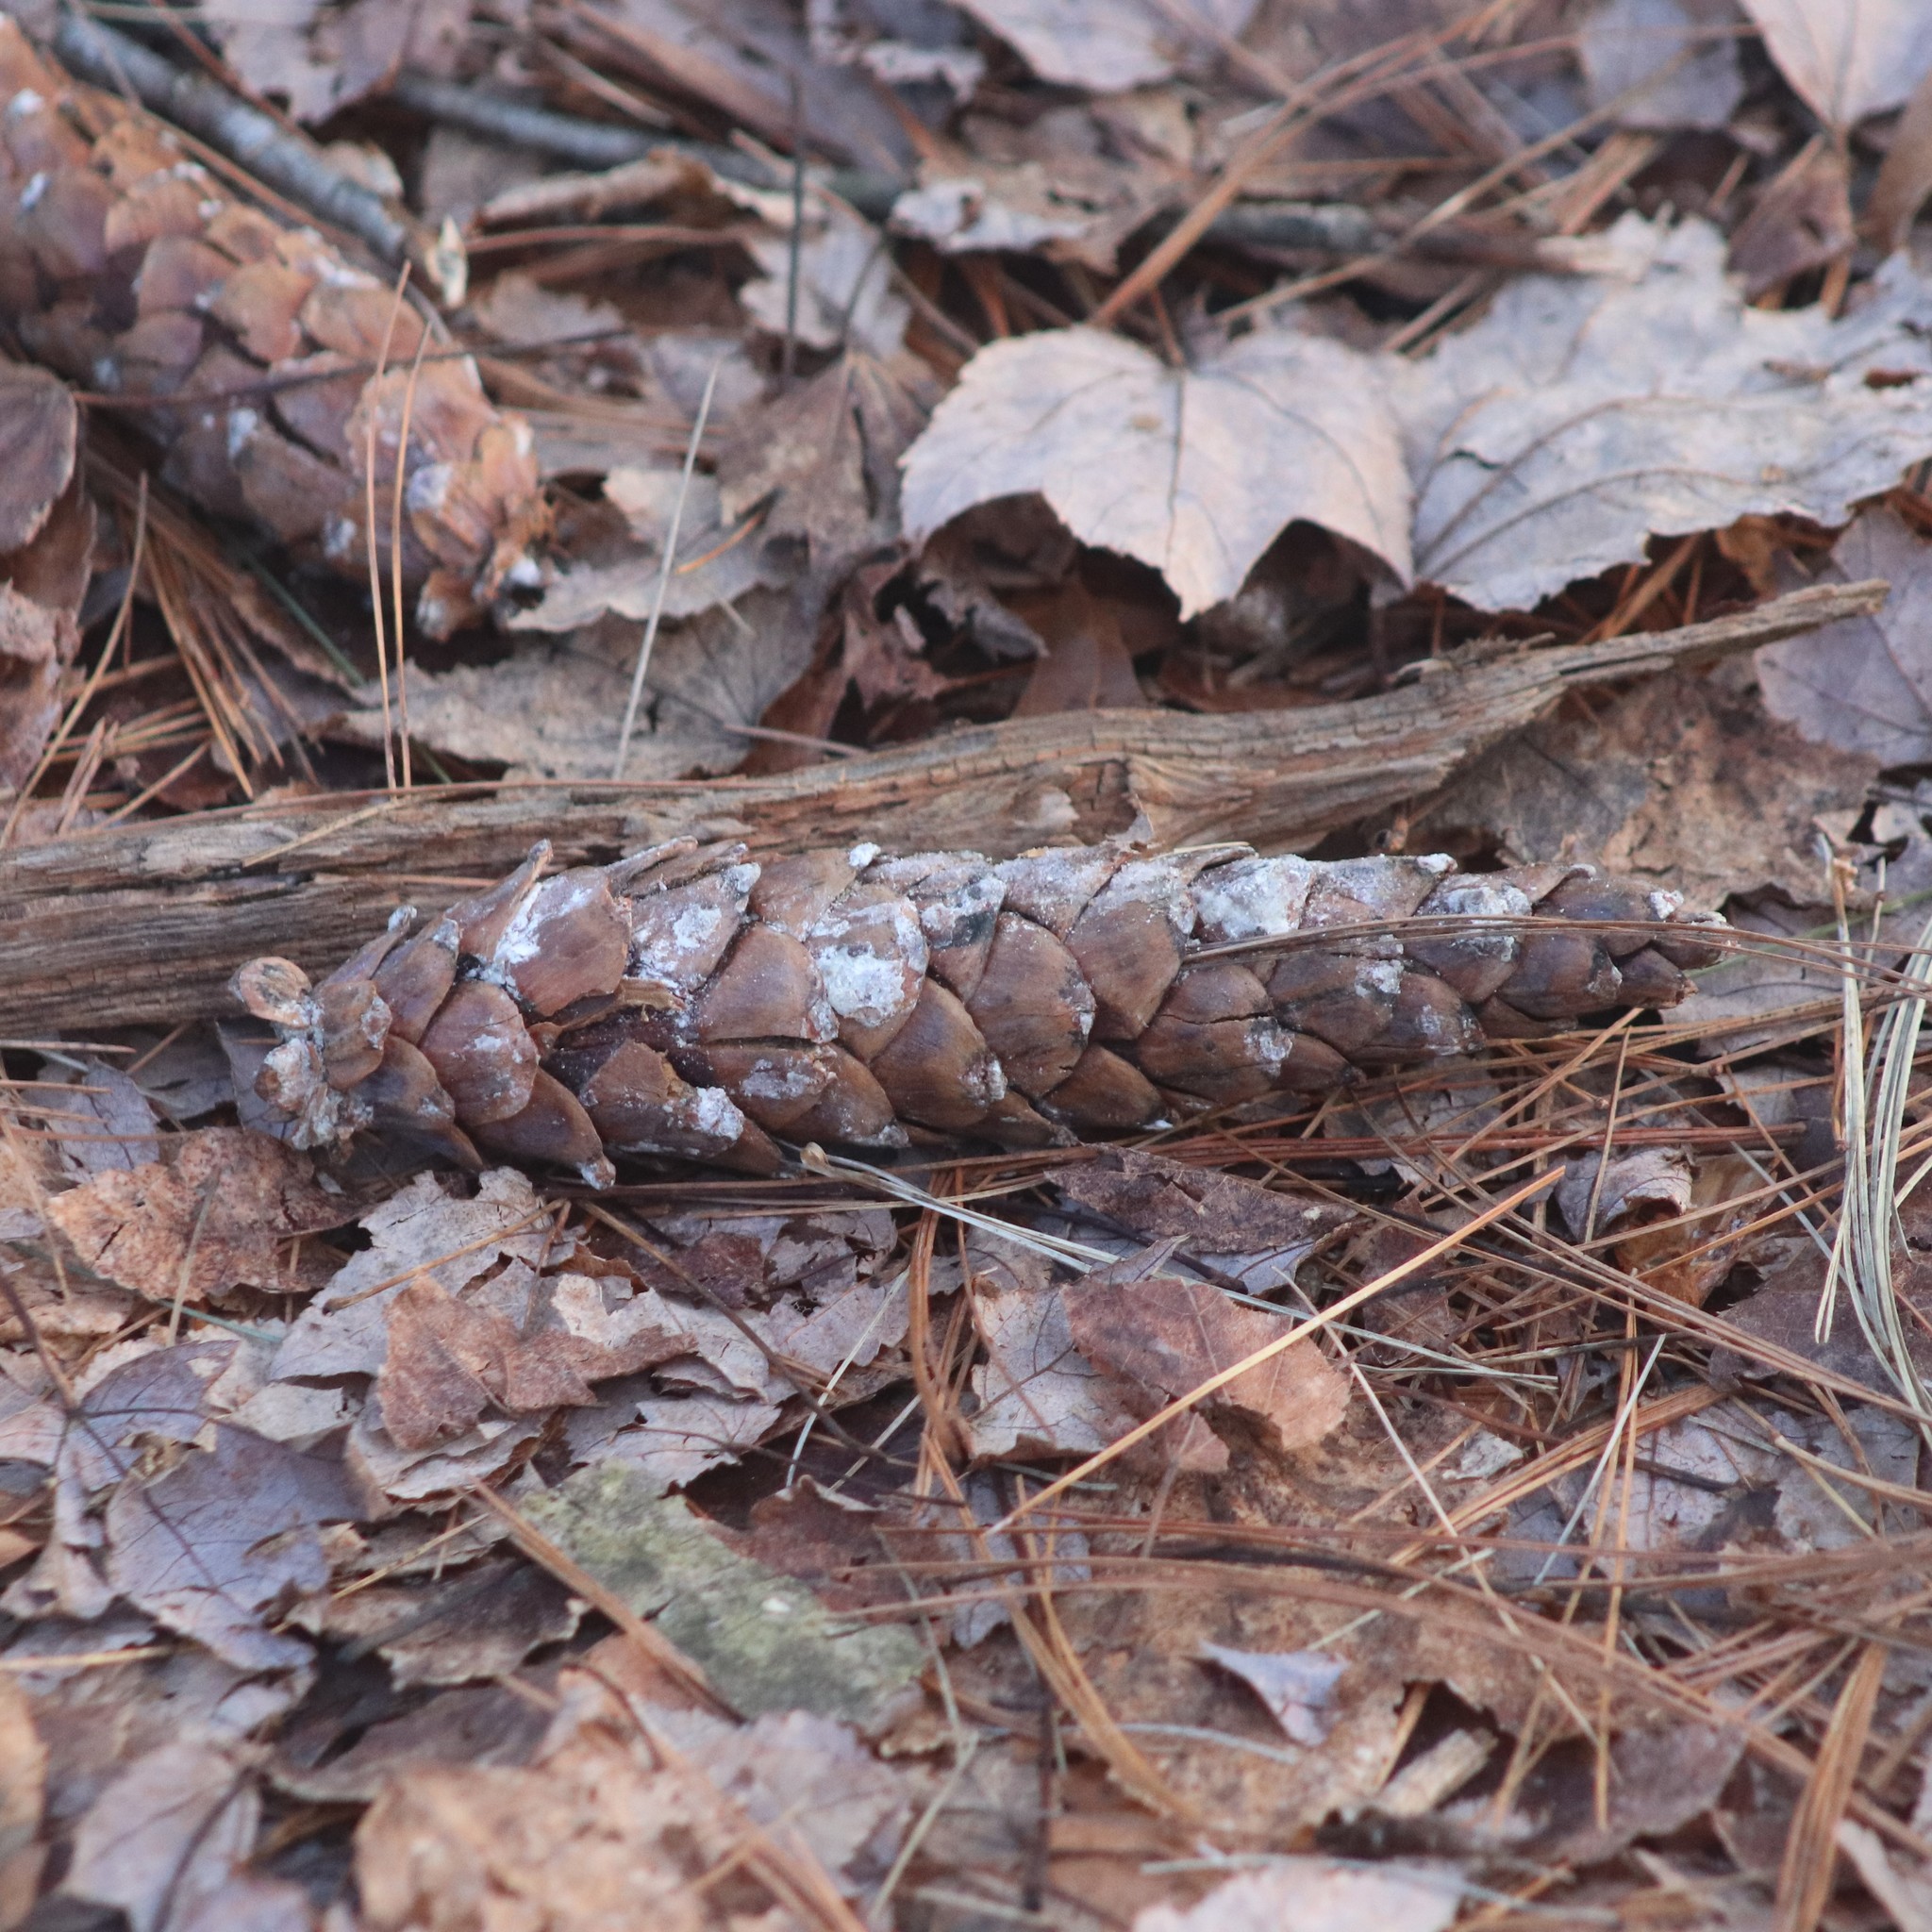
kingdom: Plantae
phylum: Tracheophyta
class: Pinopsida
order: Pinales
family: Pinaceae
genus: Pinus
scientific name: Pinus strobus
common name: Weymouth pine
